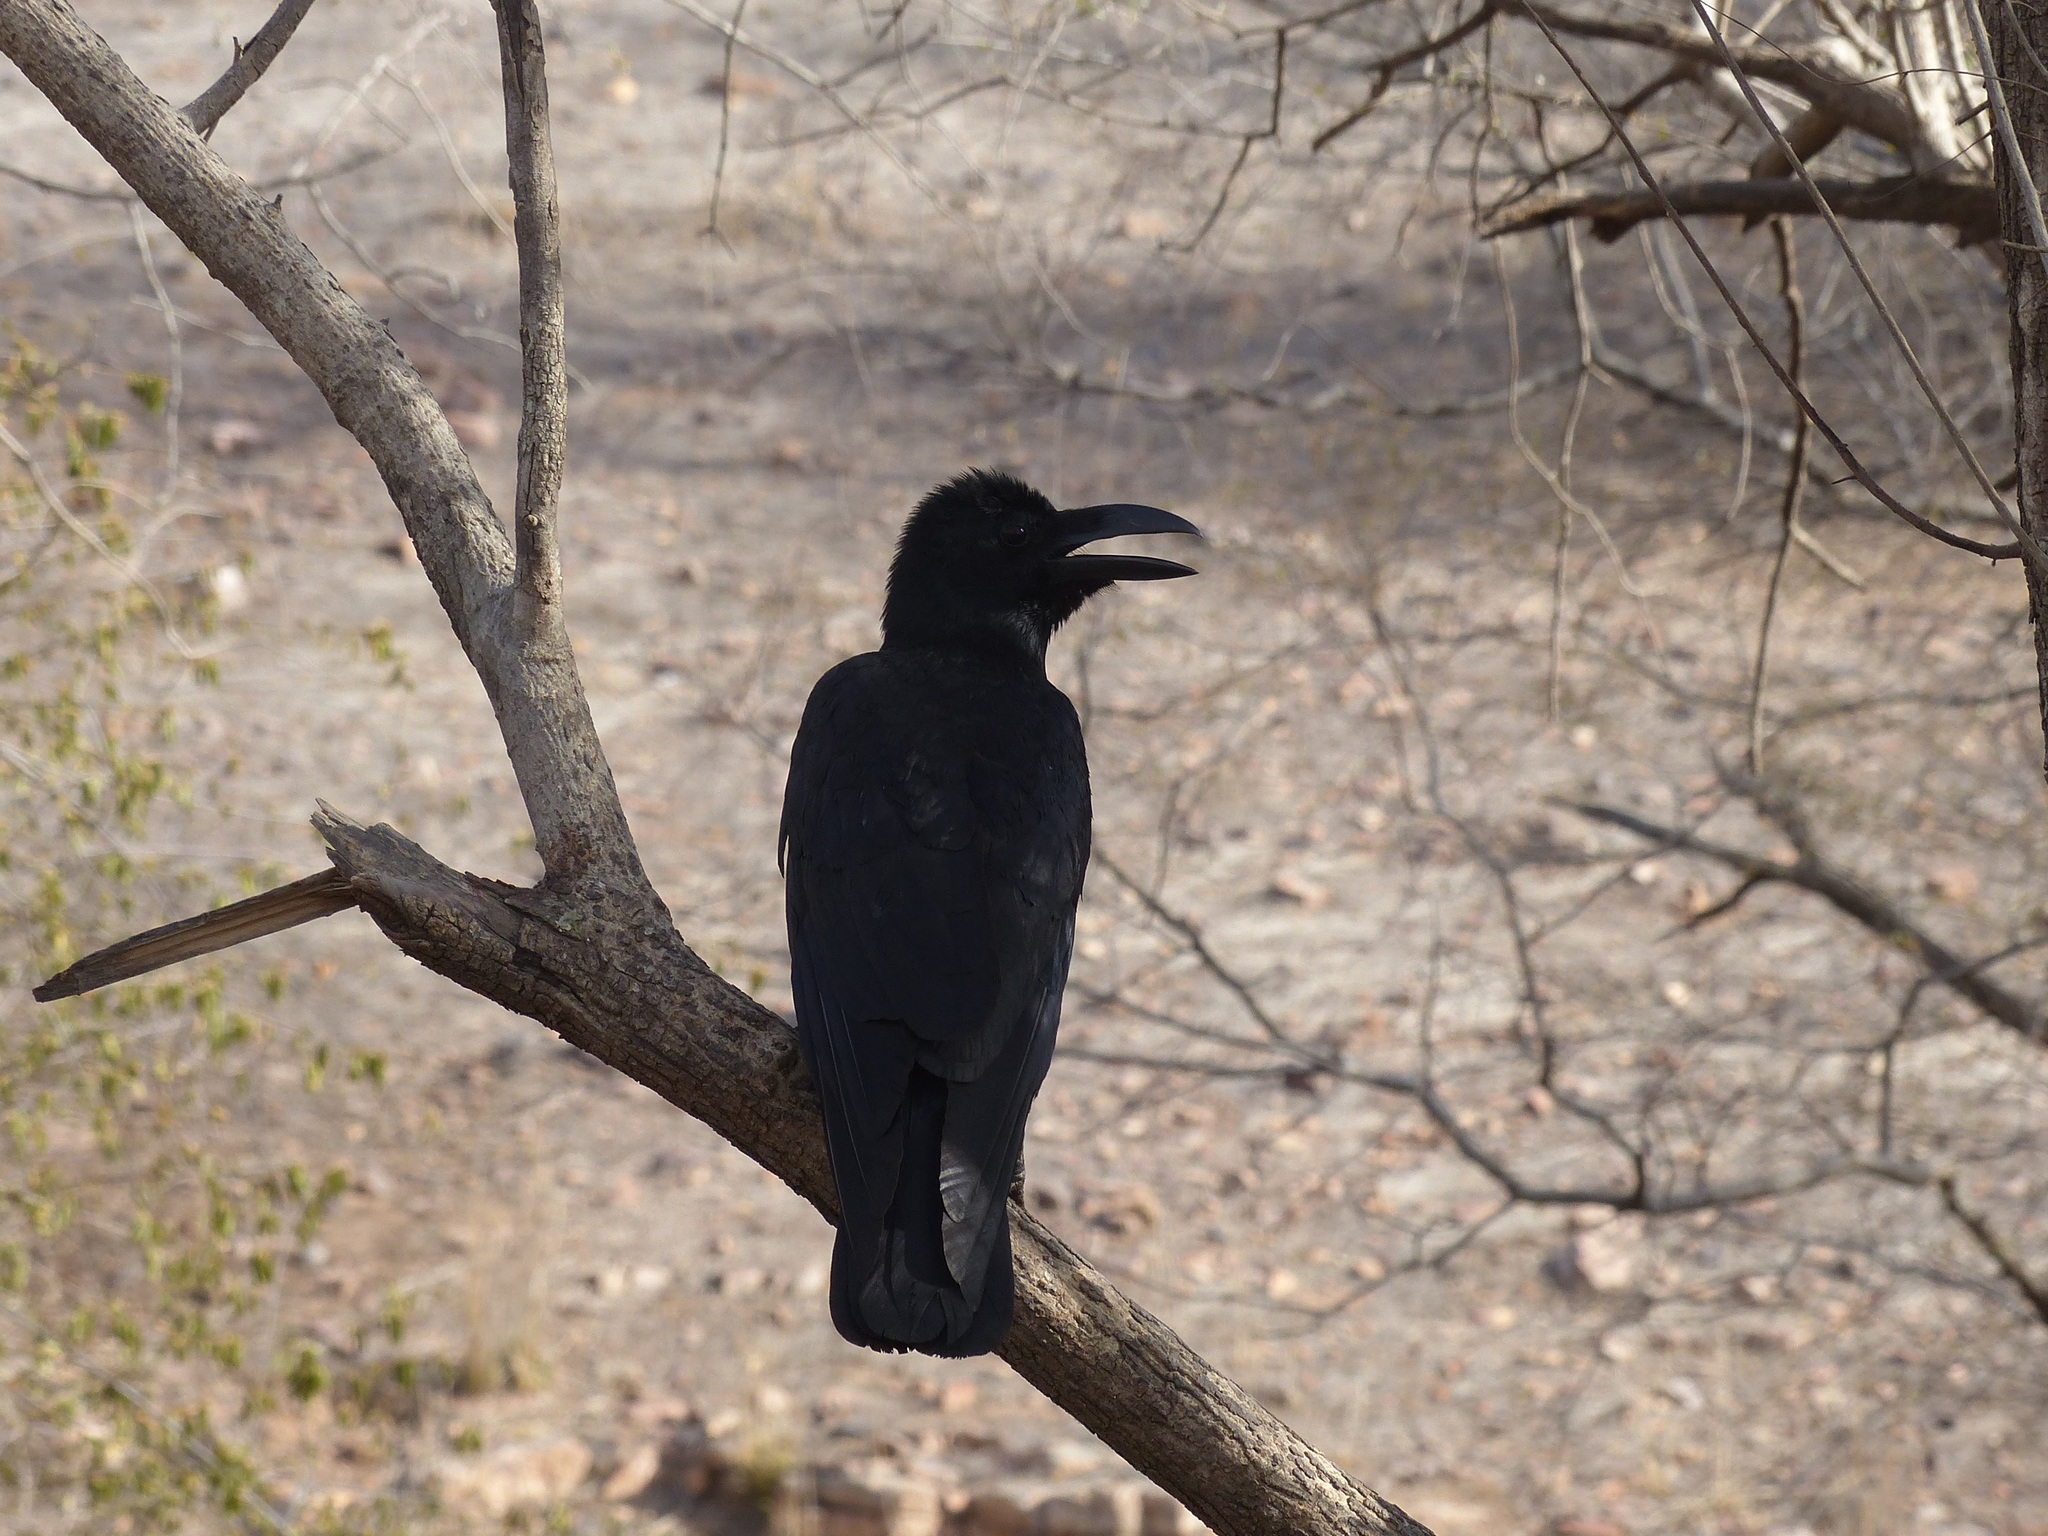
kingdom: Animalia
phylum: Chordata
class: Aves
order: Passeriformes
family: Corvidae
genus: Corvus
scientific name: Corvus macrorhynchos
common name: Large-billed crow
